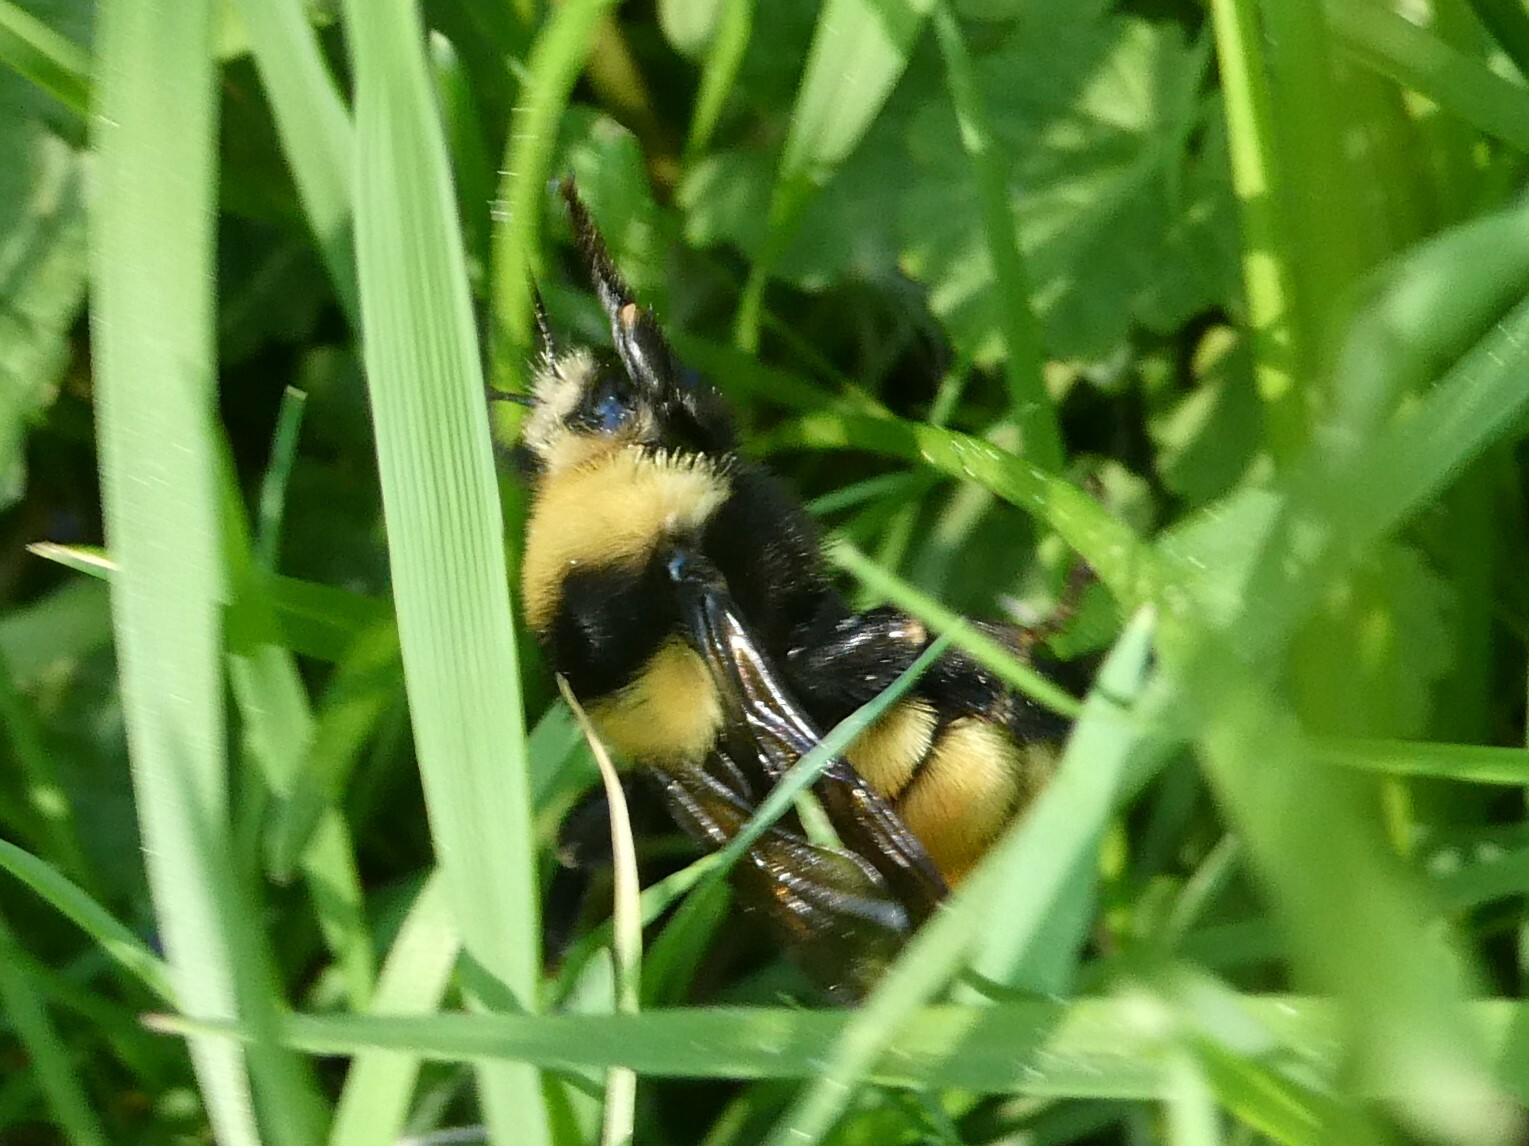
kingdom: Animalia
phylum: Arthropoda
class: Insecta
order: Hymenoptera
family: Apidae
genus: Bombus
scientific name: Bombus borealis
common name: Northern amber bumble bee
